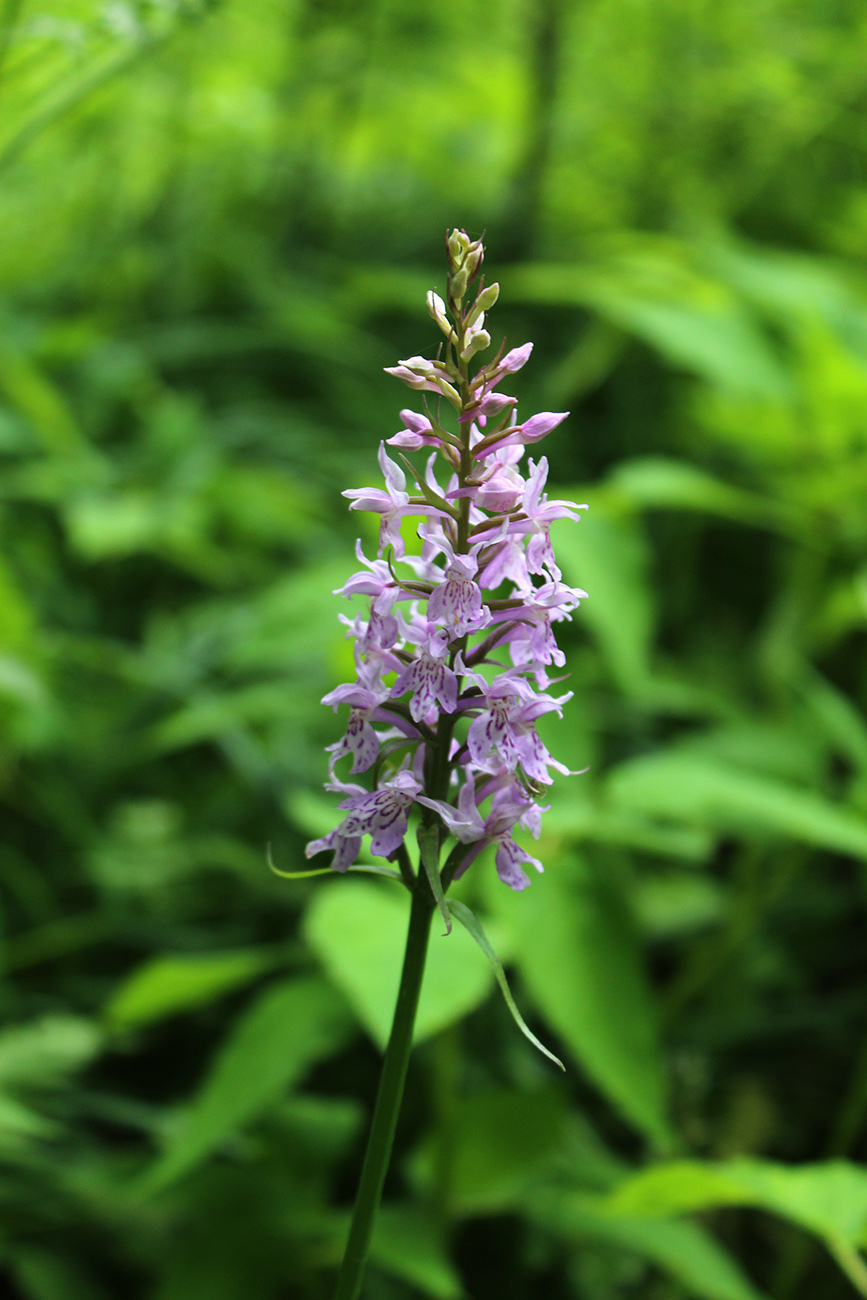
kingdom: Plantae
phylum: Tracheophyta
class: Liliopsida
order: Asparagales
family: Orchidaceae
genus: Dactylorhiza
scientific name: Dactylorhiza maculata
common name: Heath spotted-orchid
